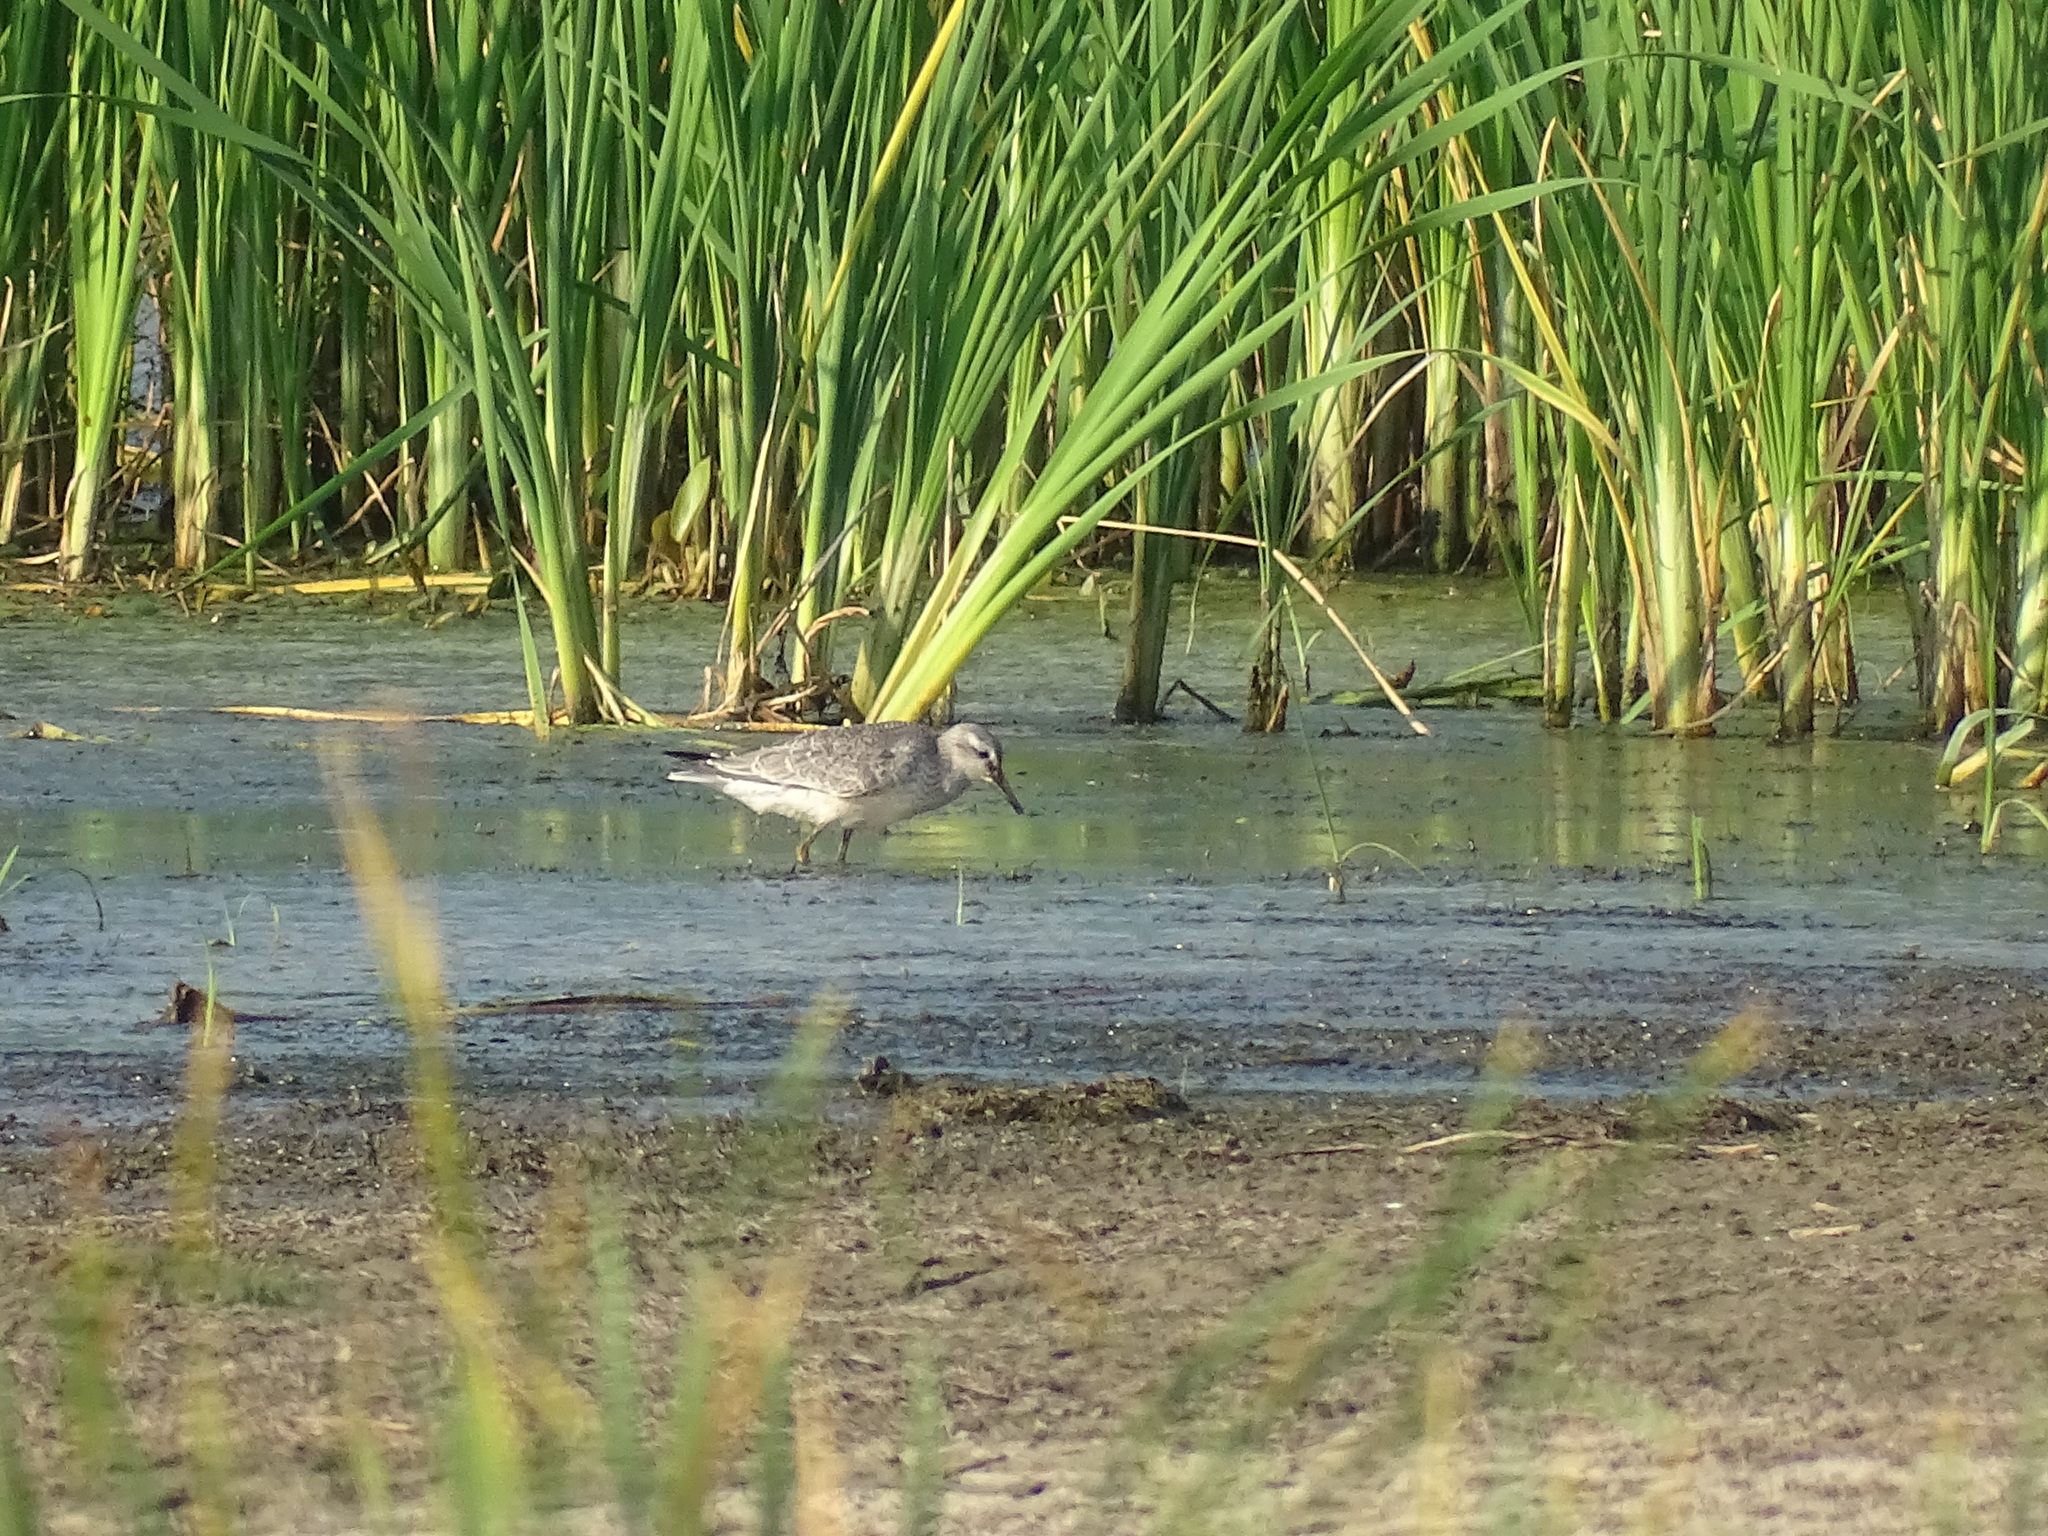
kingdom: Animalia
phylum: Chordata
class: Aves
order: Charadriiformes
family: Scolopacidae
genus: Calidris
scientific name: Calidris canutus
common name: Red knot
